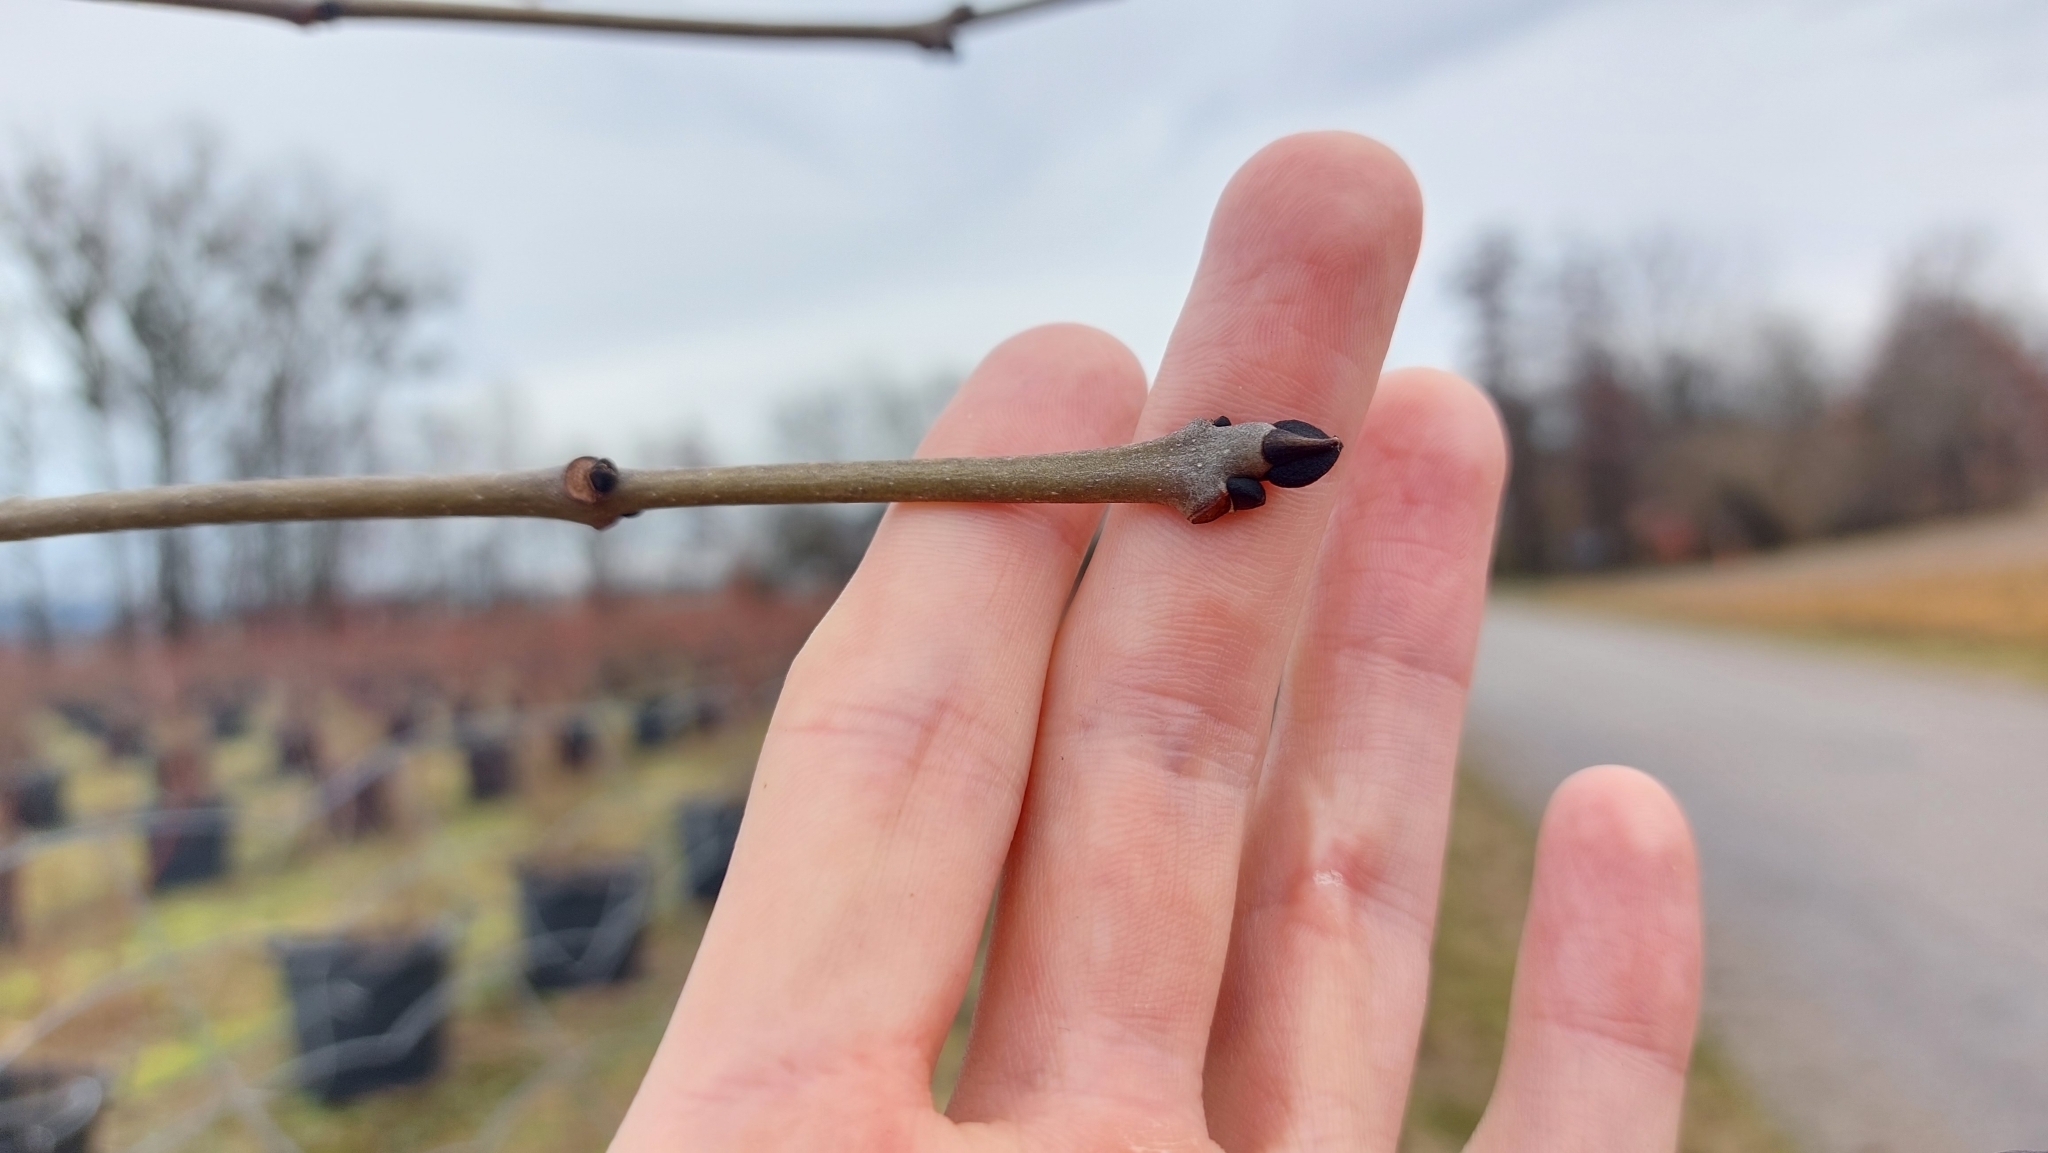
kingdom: Plantae
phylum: Tracheophyta
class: Magnoliopsida
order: Lamiales
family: Oleaceae
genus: Fraxinus
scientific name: Fraxinus excelsior
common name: European ash
